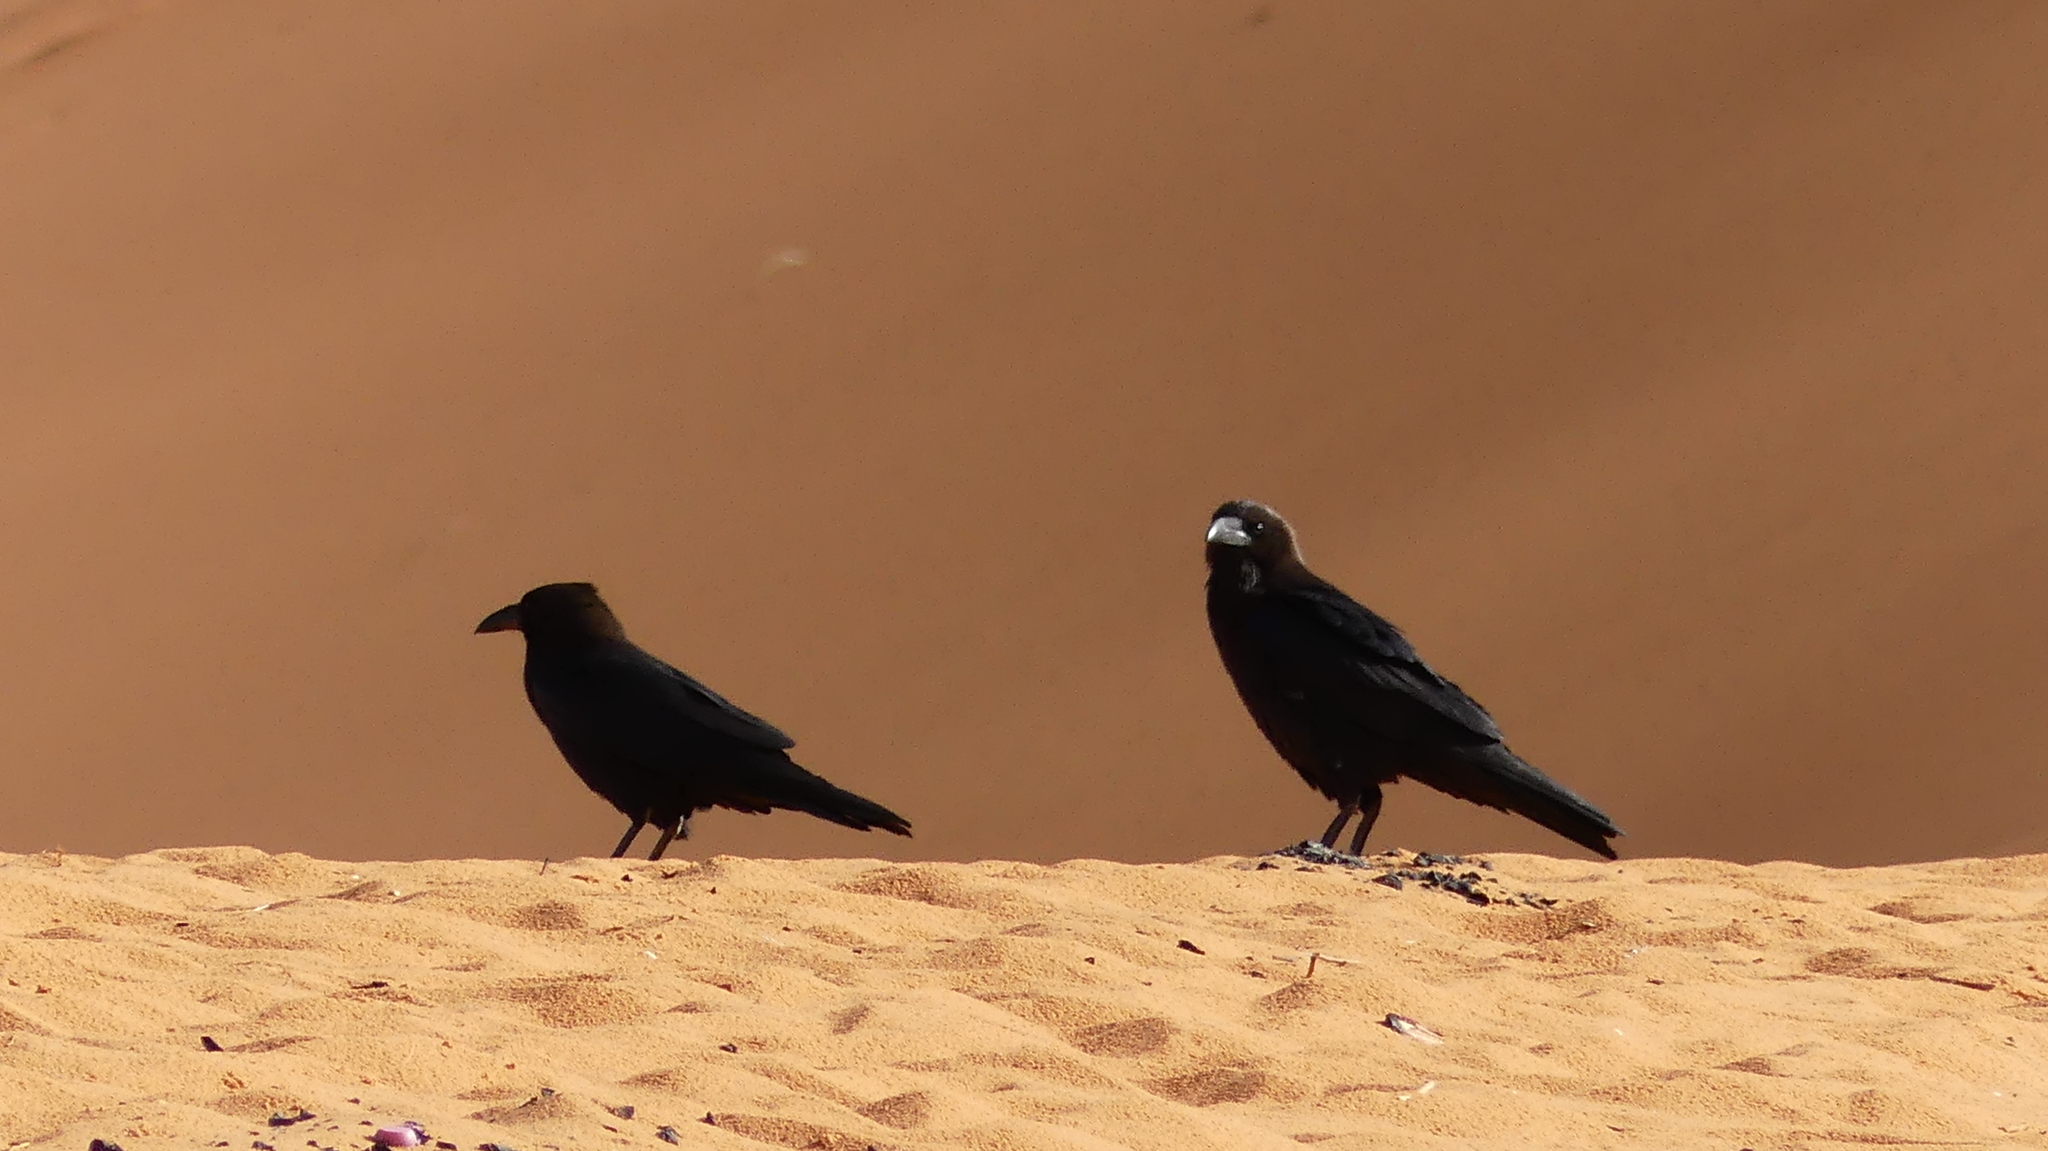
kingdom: Animalia
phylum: Chordata
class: Aves
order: Passeriformes
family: Corvidae
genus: Corvus
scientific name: Corvus ruficollis
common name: Brown-necked raven
